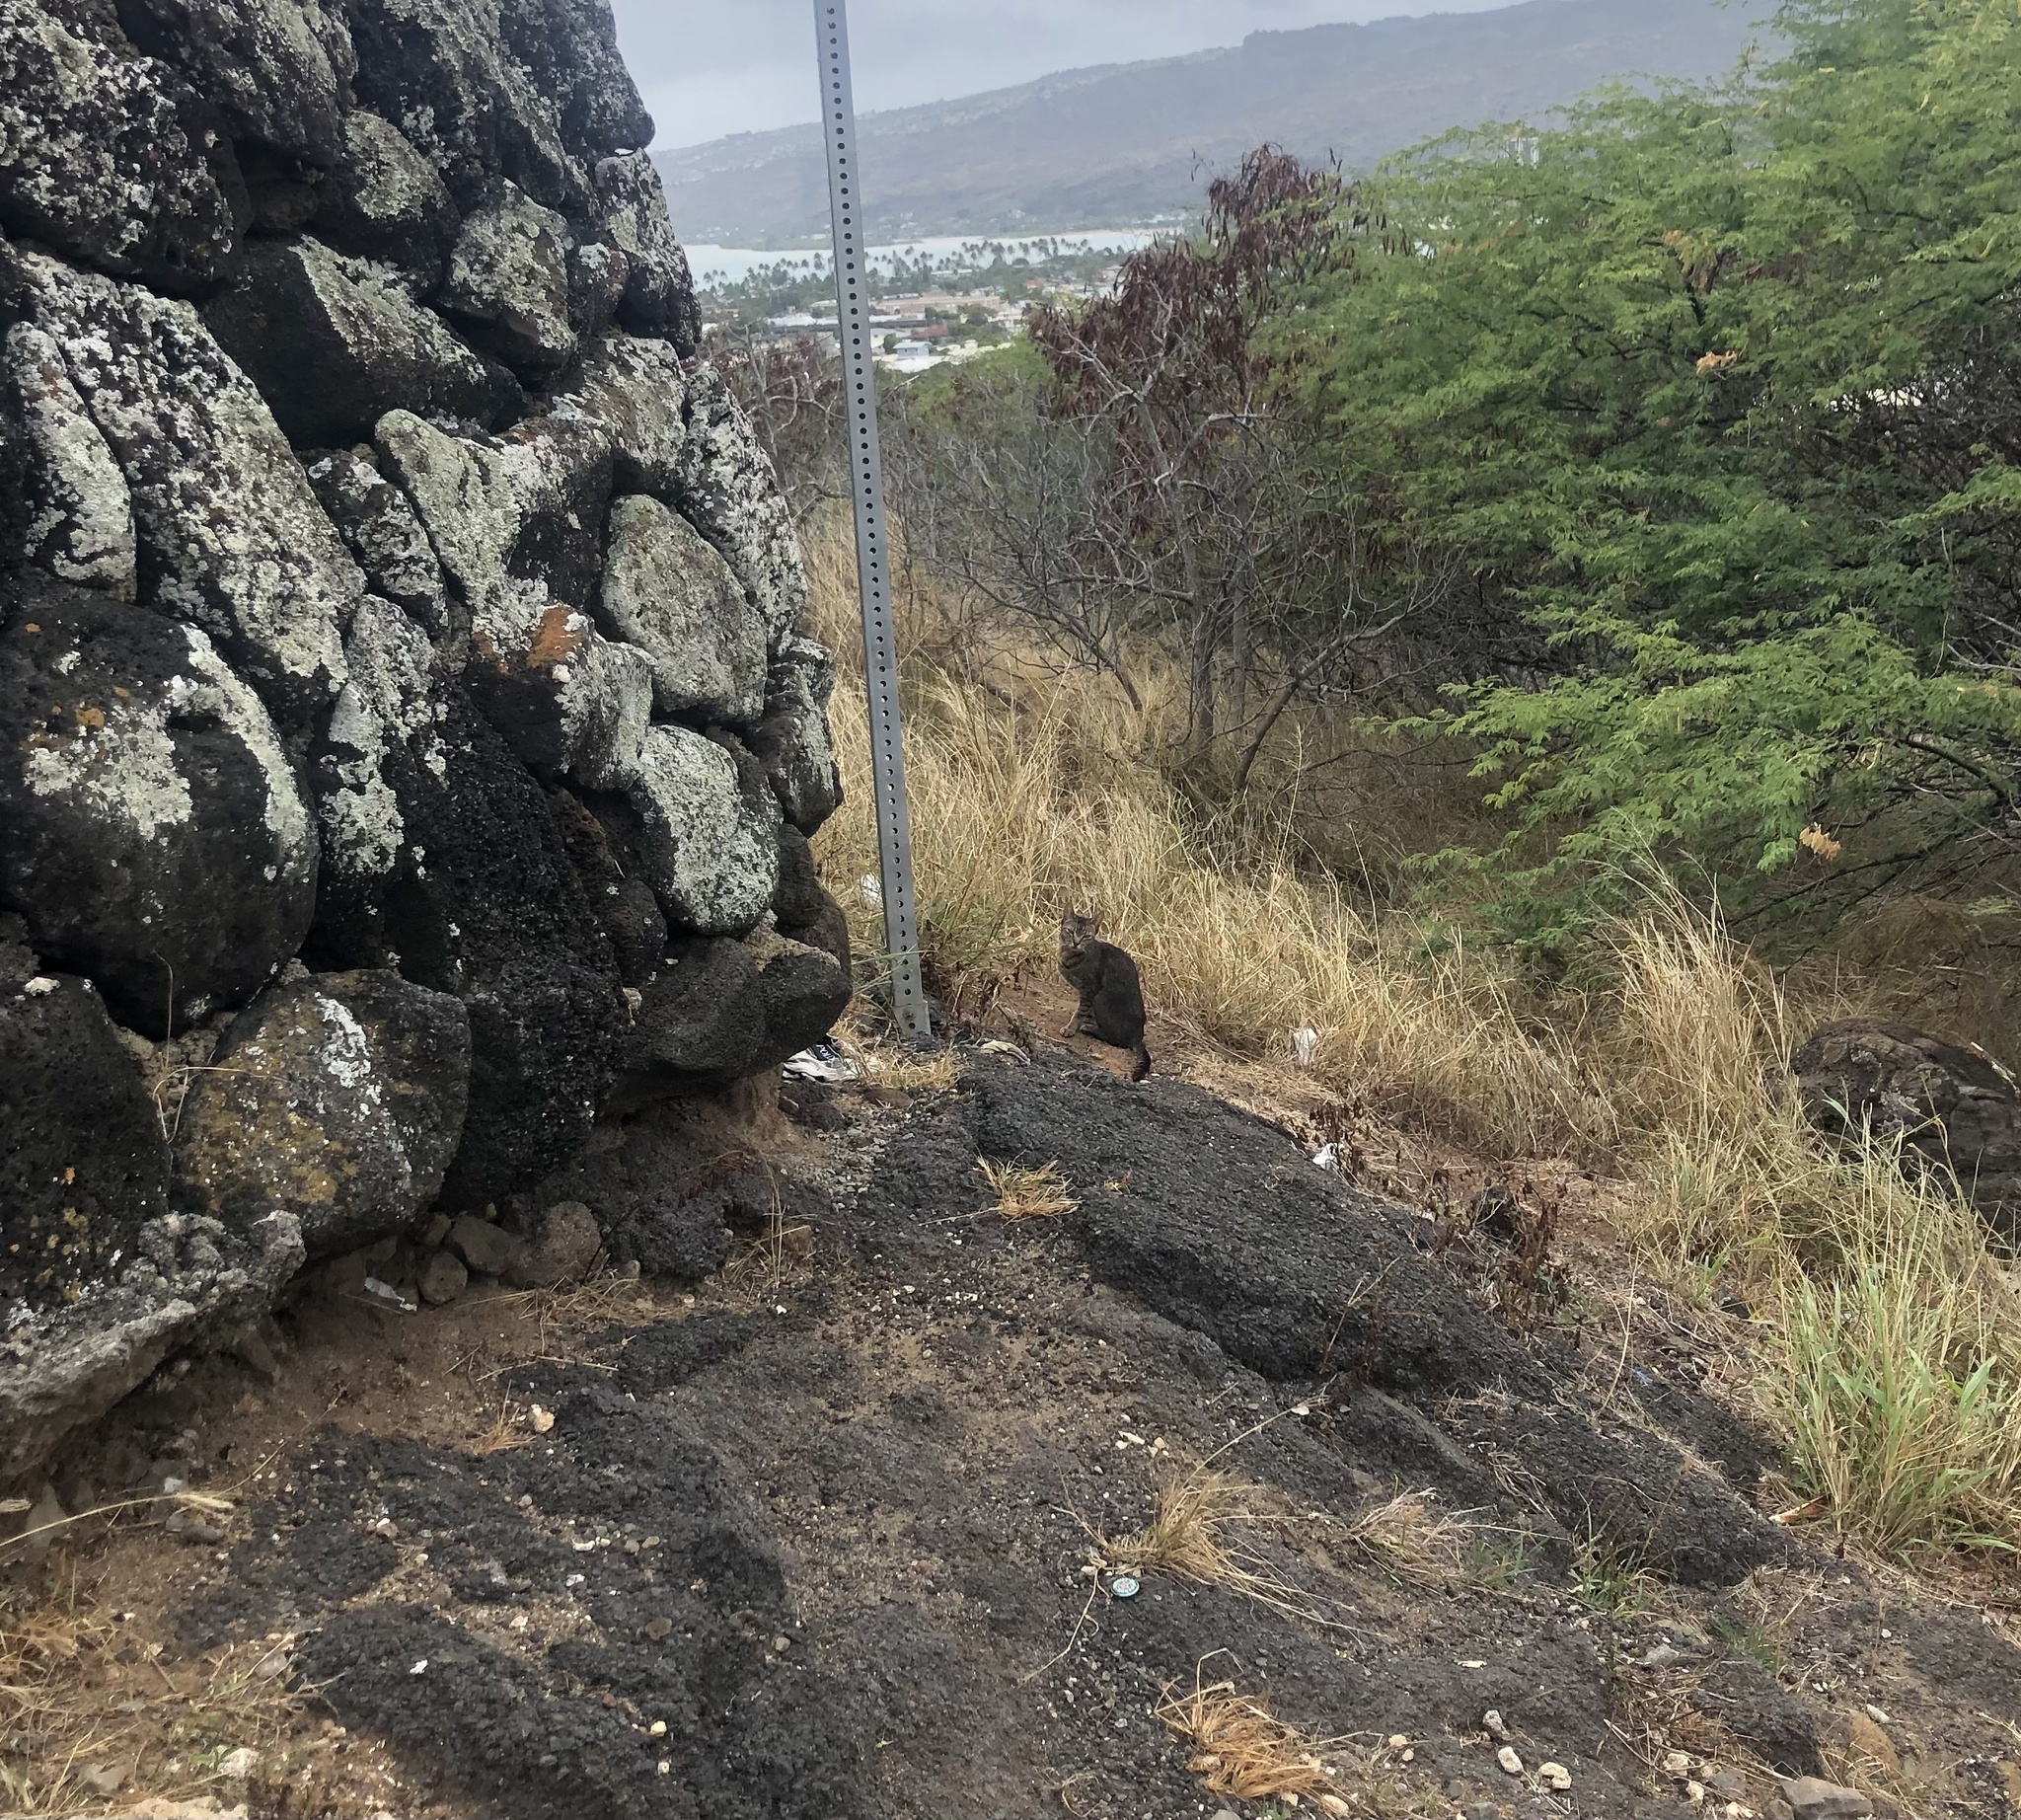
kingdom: Animalia
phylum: Chordata
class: Mammalia
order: Carnivora
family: Felidae
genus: Felis
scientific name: Felis catus
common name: Domestic cat
